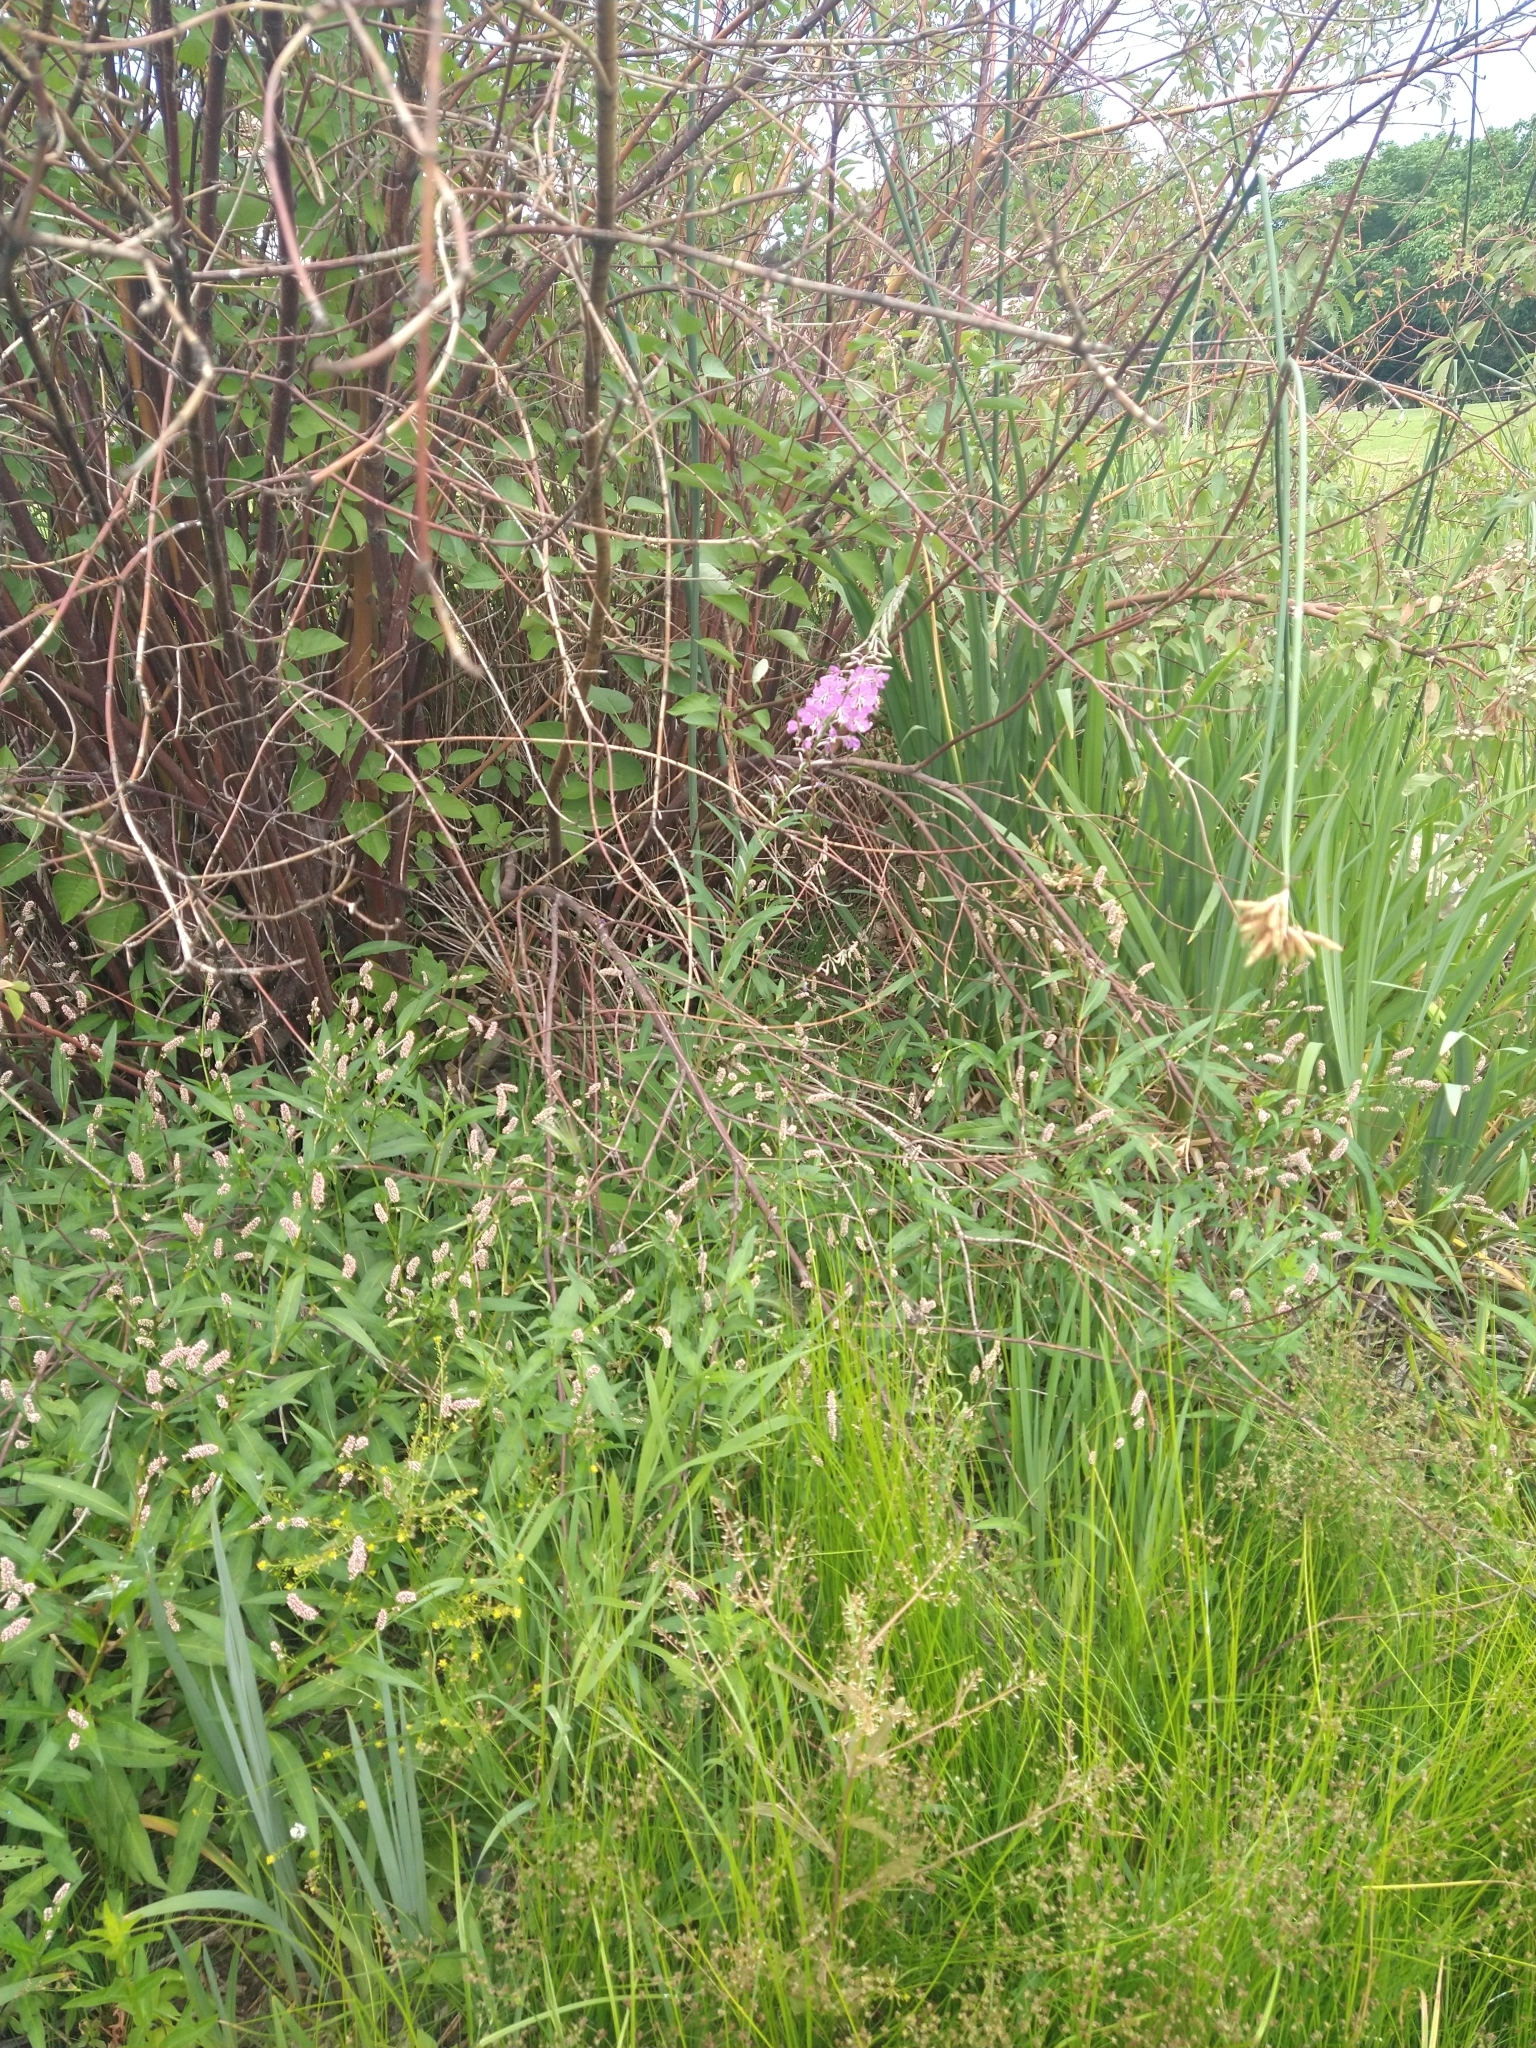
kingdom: Plantae
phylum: Tracheophyta
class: Magnoliopsida
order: Myrtales
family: Onagraceae
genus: Chamaenerion
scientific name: Chamaenerion angustifolium
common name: Fireweed
